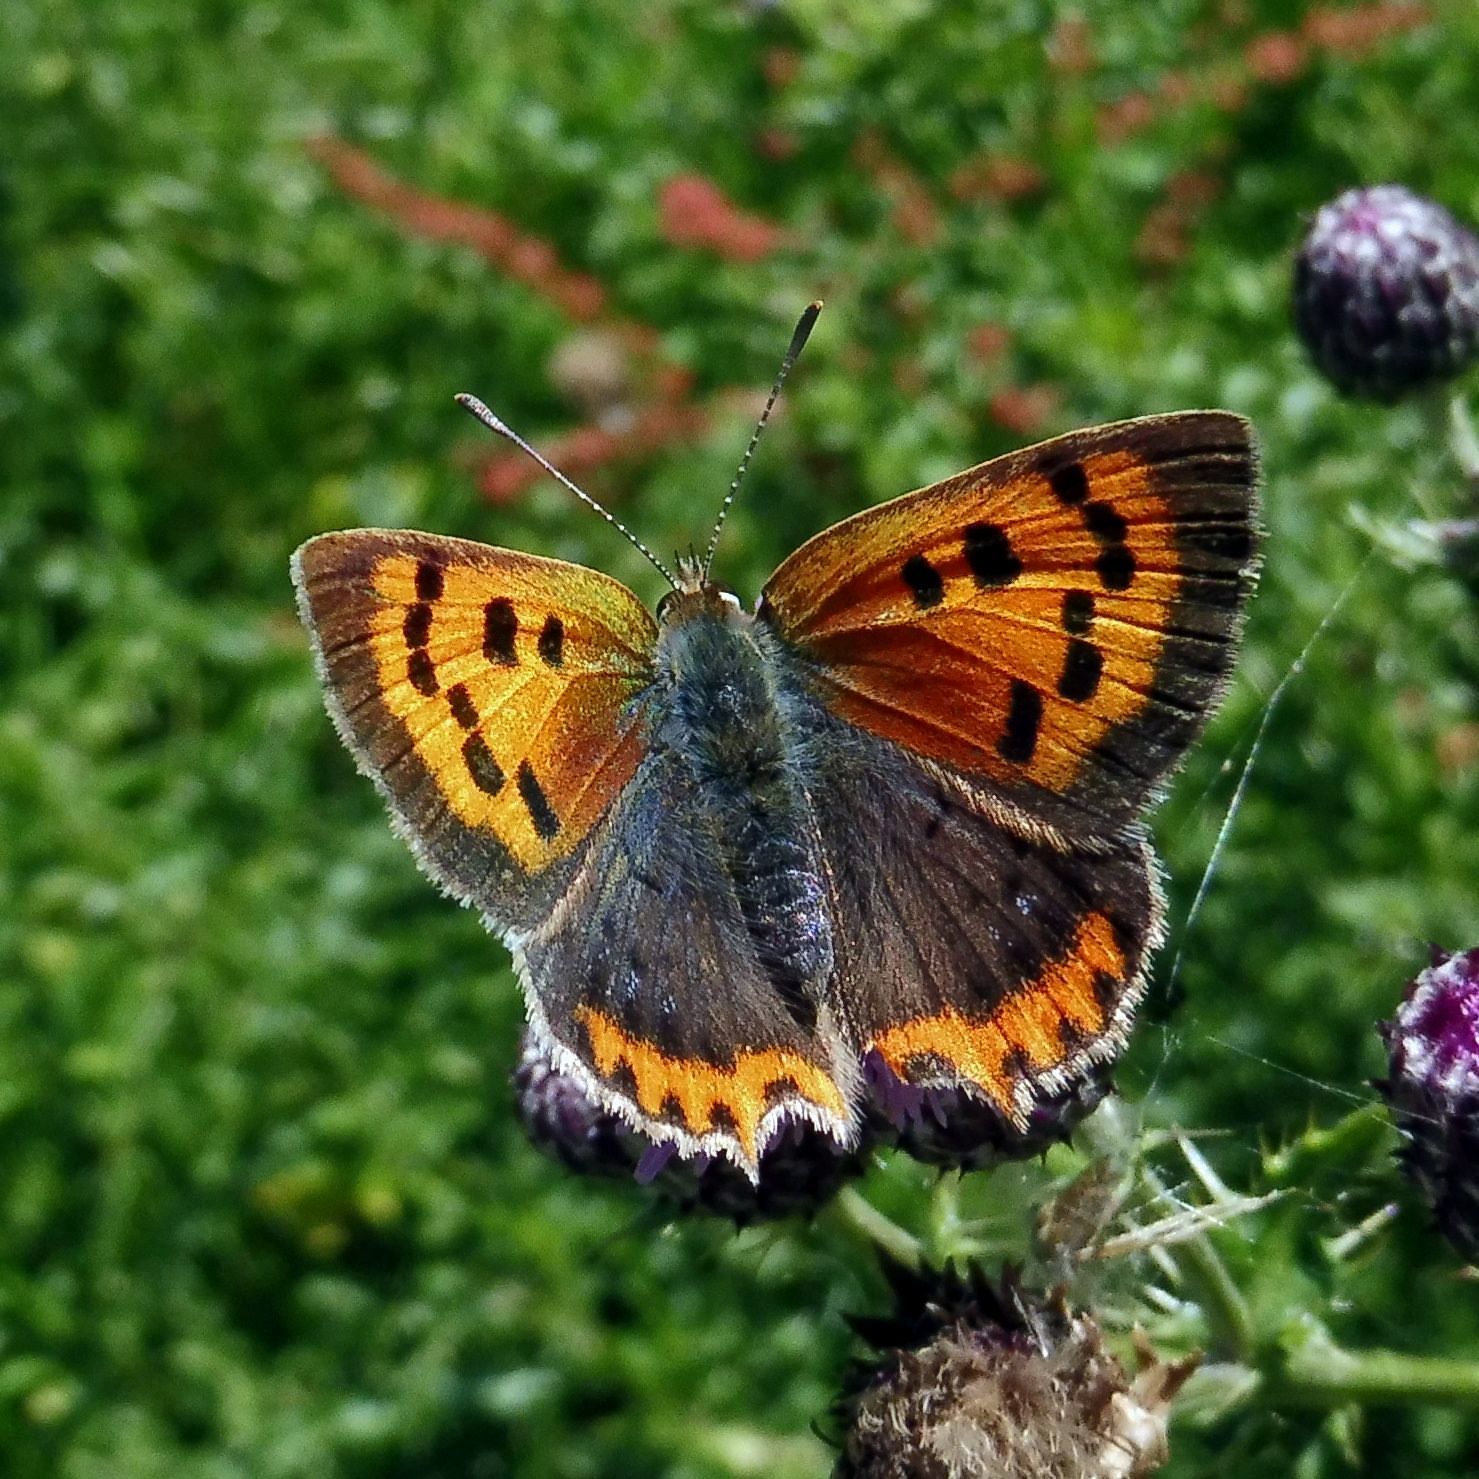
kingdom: Animalia
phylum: Arthropoda
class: Insecta
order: Lepidoptera
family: Lycaenidae
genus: Lycaena
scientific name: Lycaena phlaeas
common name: Small copper
